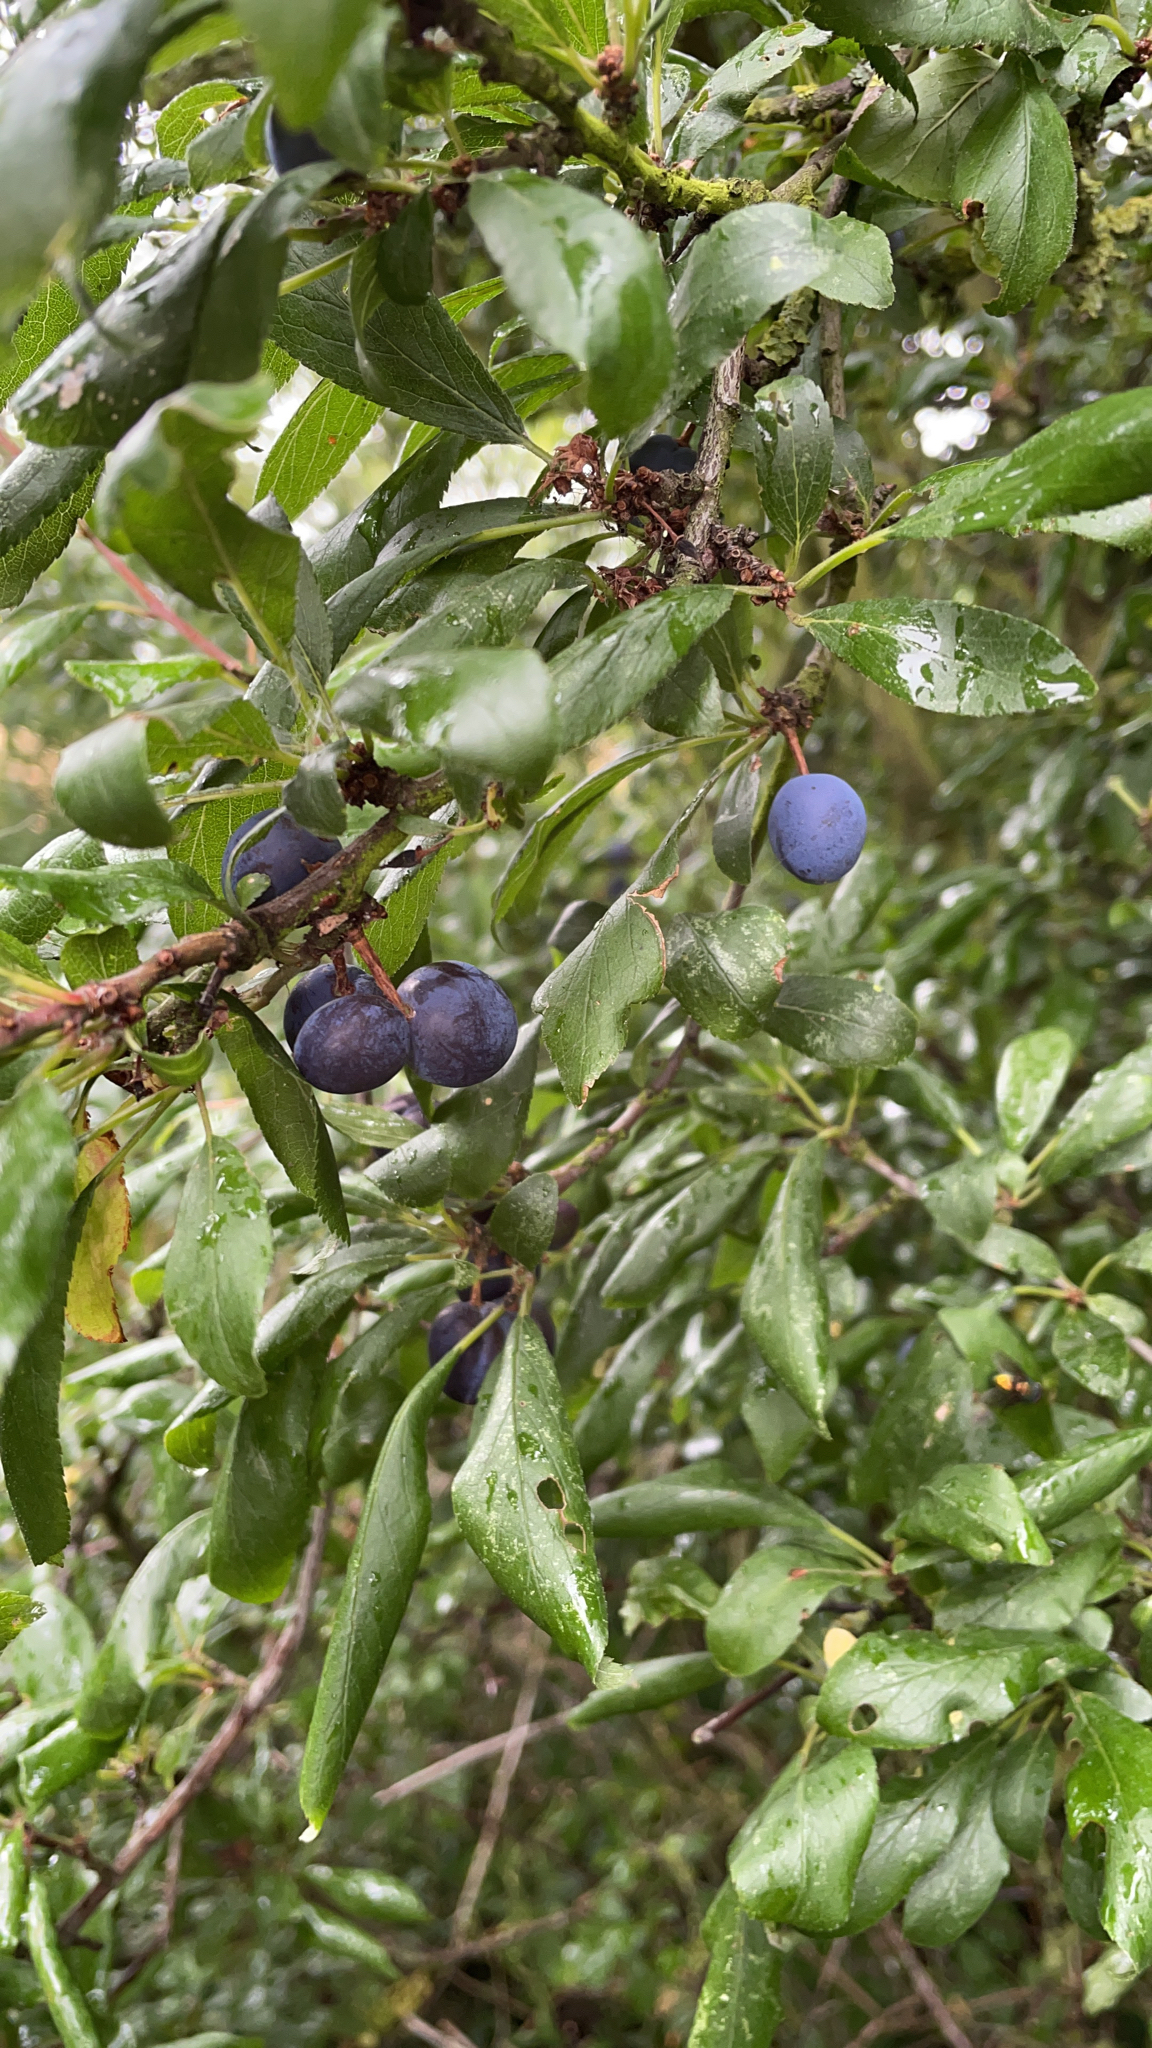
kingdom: Plantae
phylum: Tracheophyta
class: Magnoliopsida
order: Rosales
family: Rosaceae
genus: Prunus
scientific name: Prunus spinosa
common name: Blackthorn
